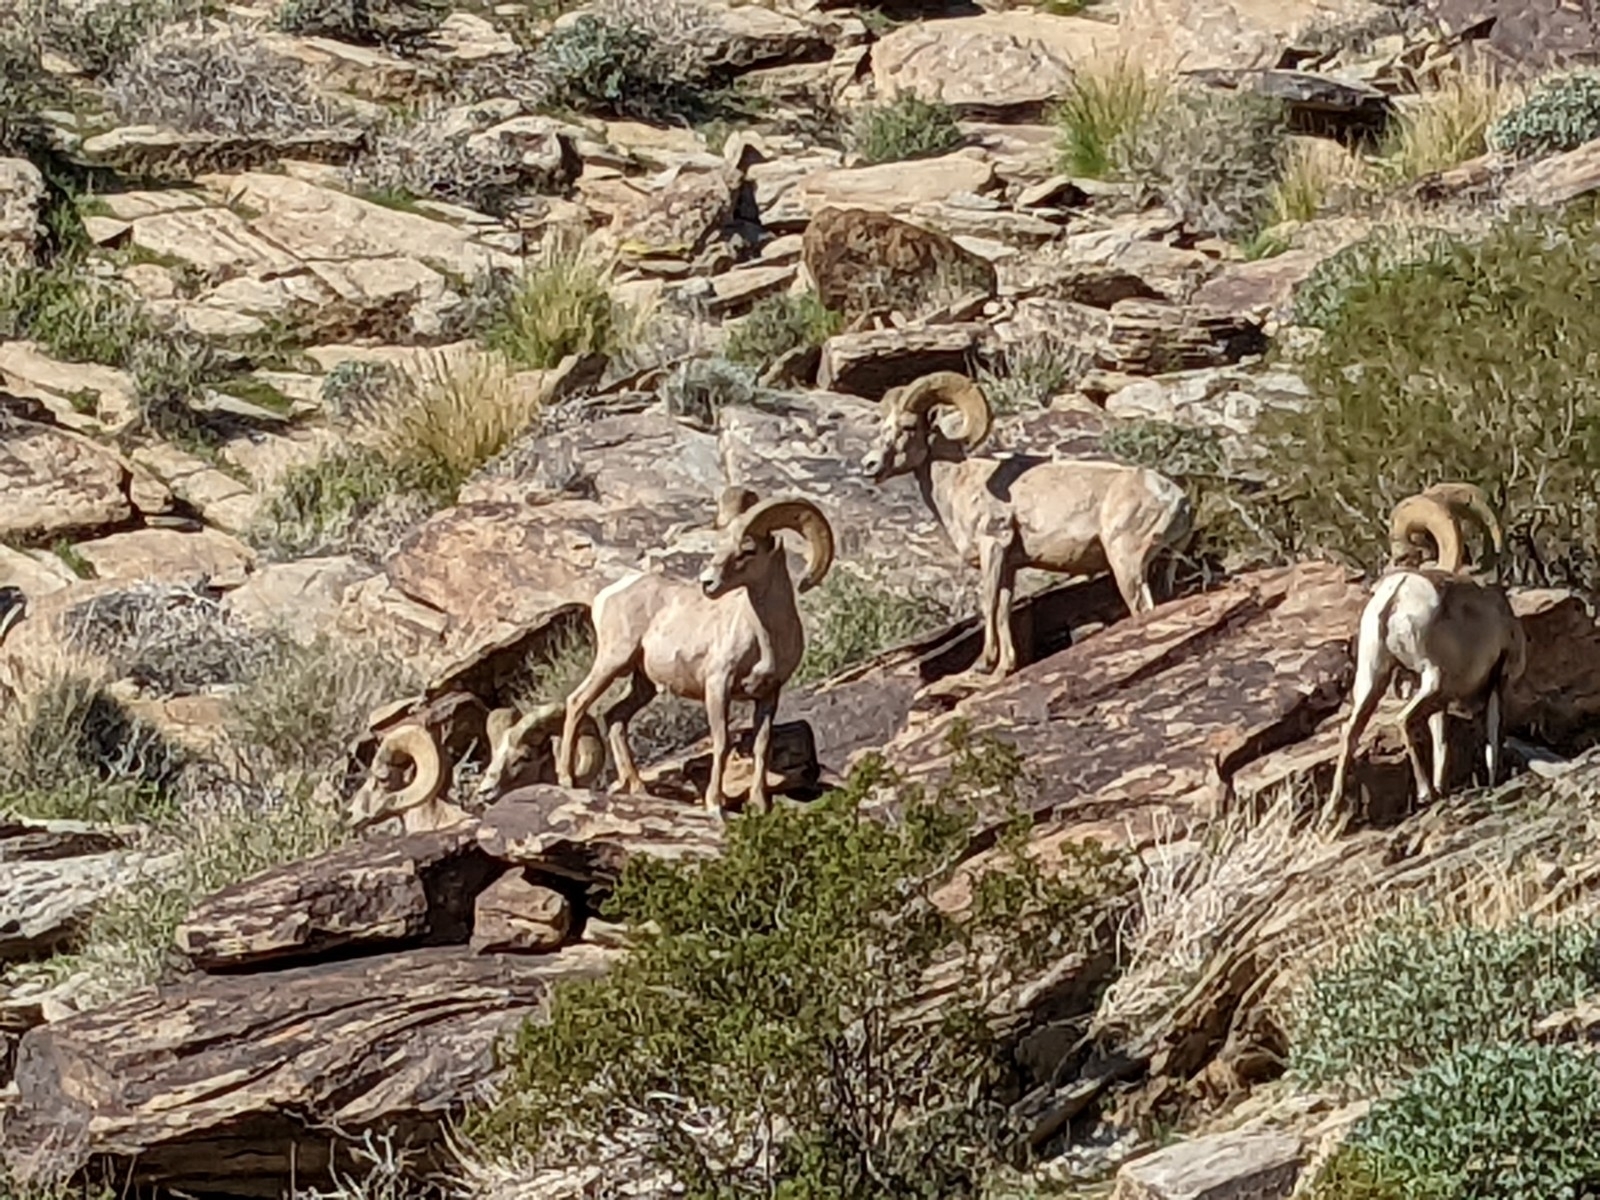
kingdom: Animalia
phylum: Chordata
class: Mammalia
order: Artiodactyla
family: Bovidae
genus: Ovis
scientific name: Ovis canadensis
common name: Bighorn sheep
